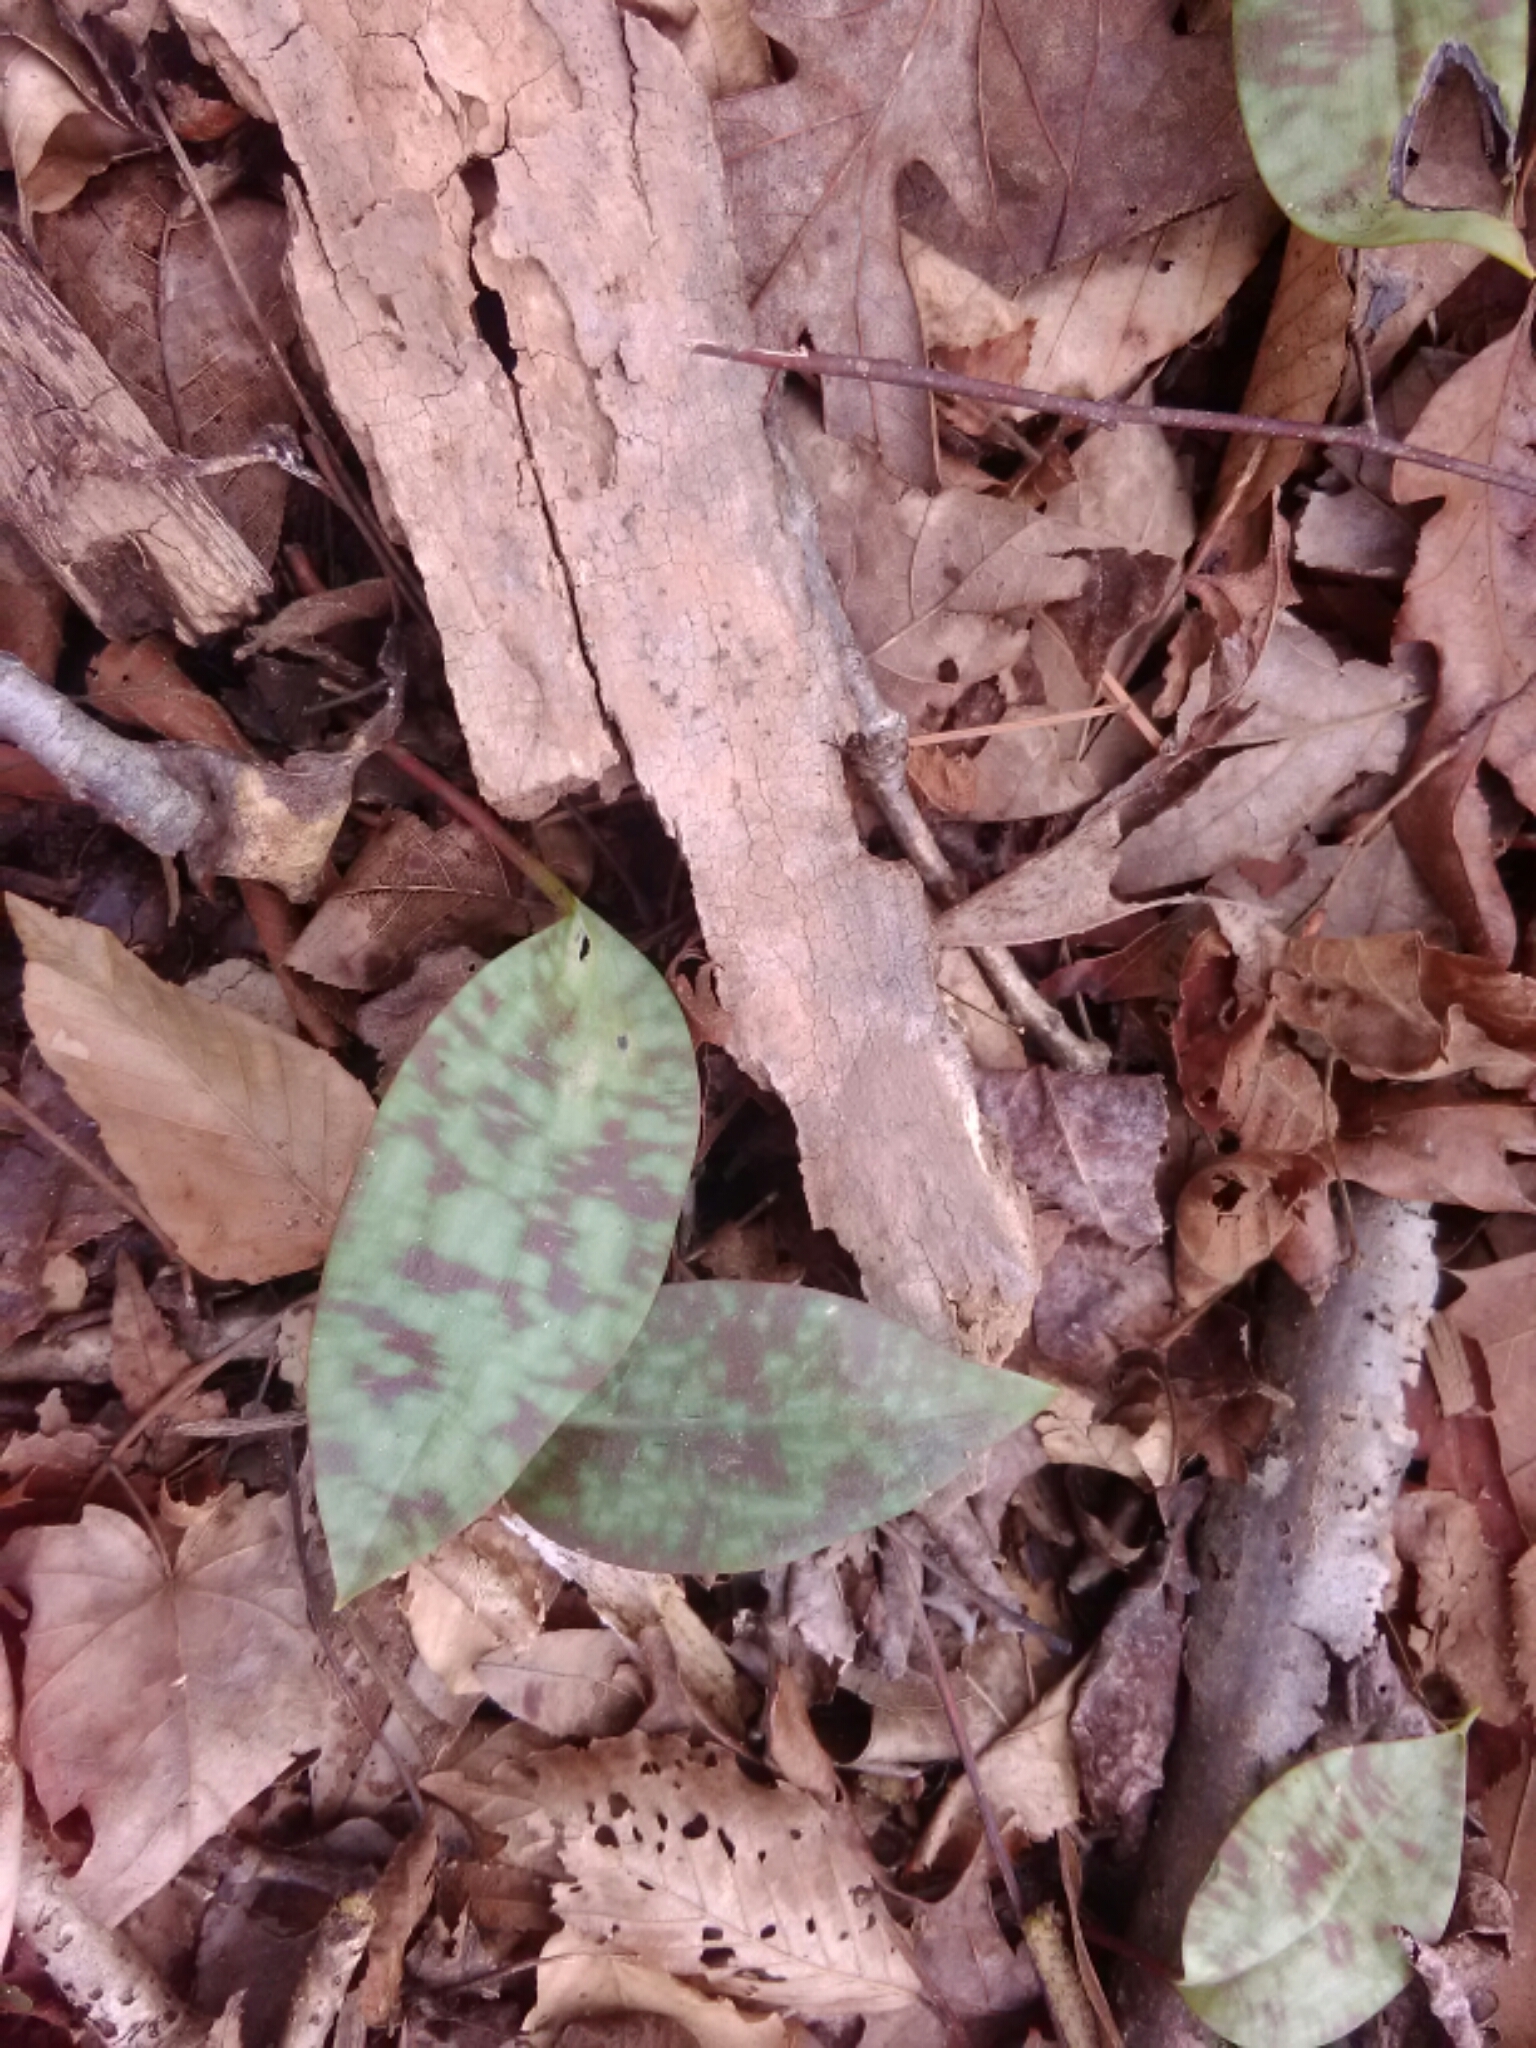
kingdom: Plantae
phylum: Tracheophyta
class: Liliopsida
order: Liliales
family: Liliaceae
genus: Erythronium
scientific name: Erythronium umbilicatum
